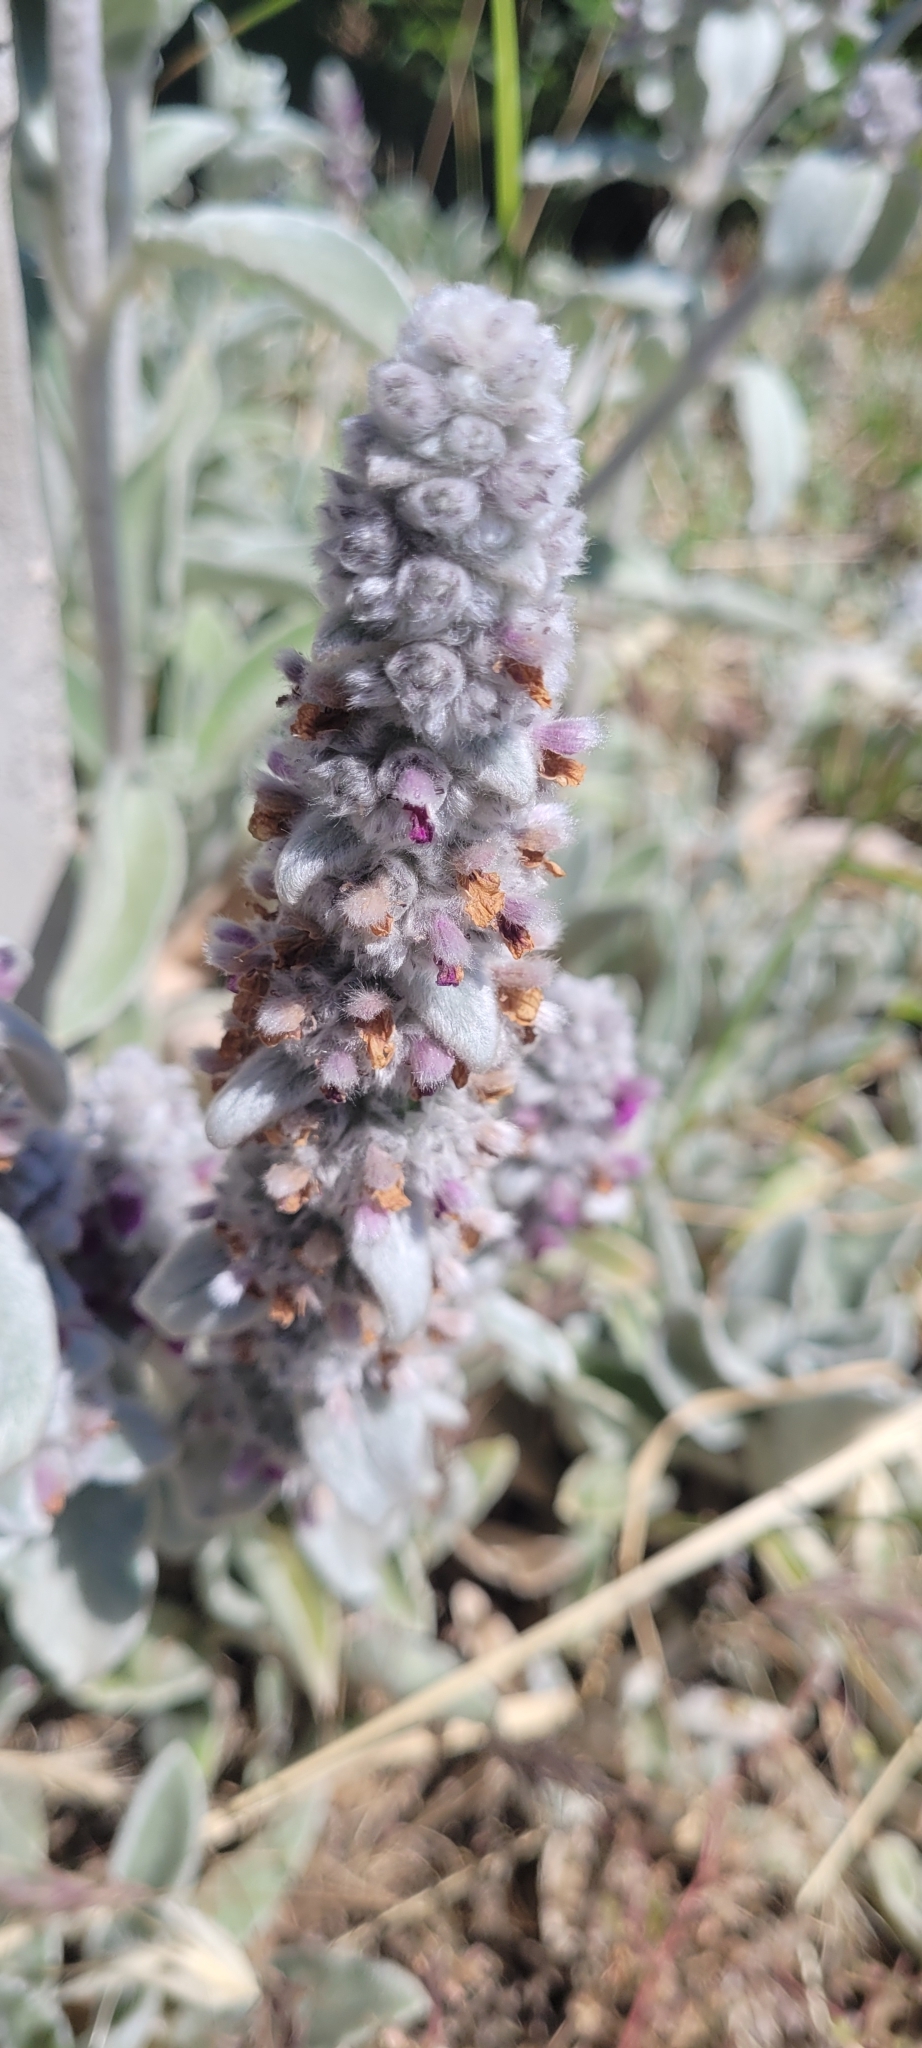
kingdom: Plantae
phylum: Tracheophyta
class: Magnoliopsida
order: Lamiales
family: Lamiaceae
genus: Stachys
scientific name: Stachys byzantina
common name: Lamb's-ear
